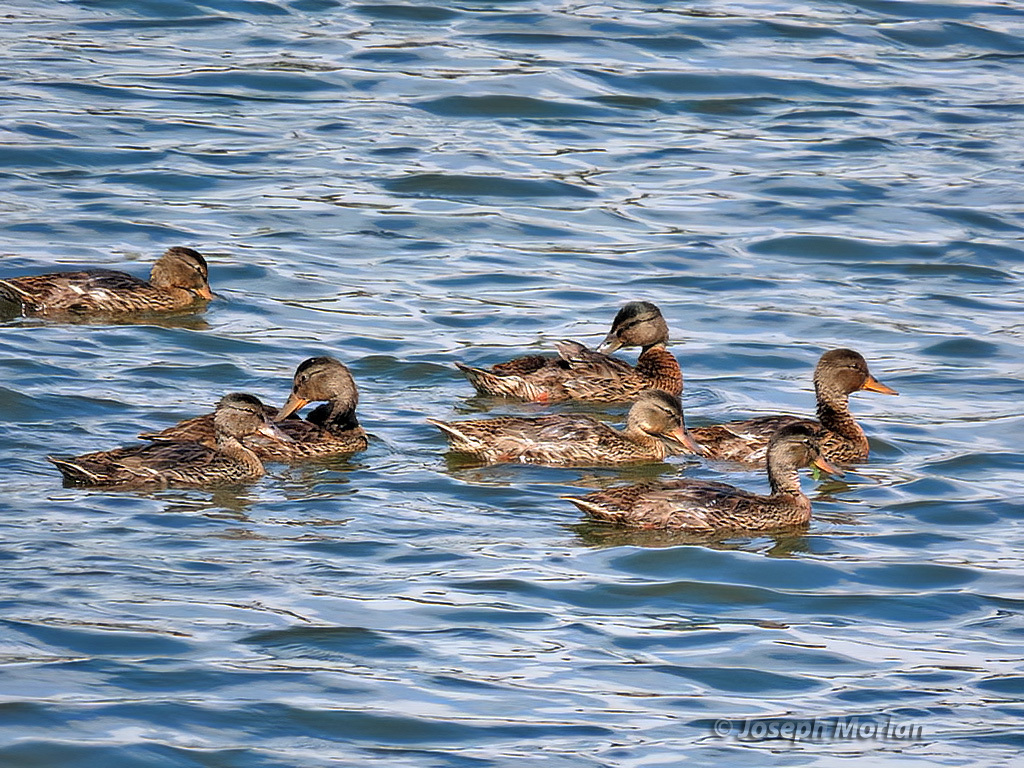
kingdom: Animalia
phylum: Chordata
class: Aves
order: Anseriformes
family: Anatidae
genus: Anas
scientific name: Anas platyrhynchos
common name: Mallard
